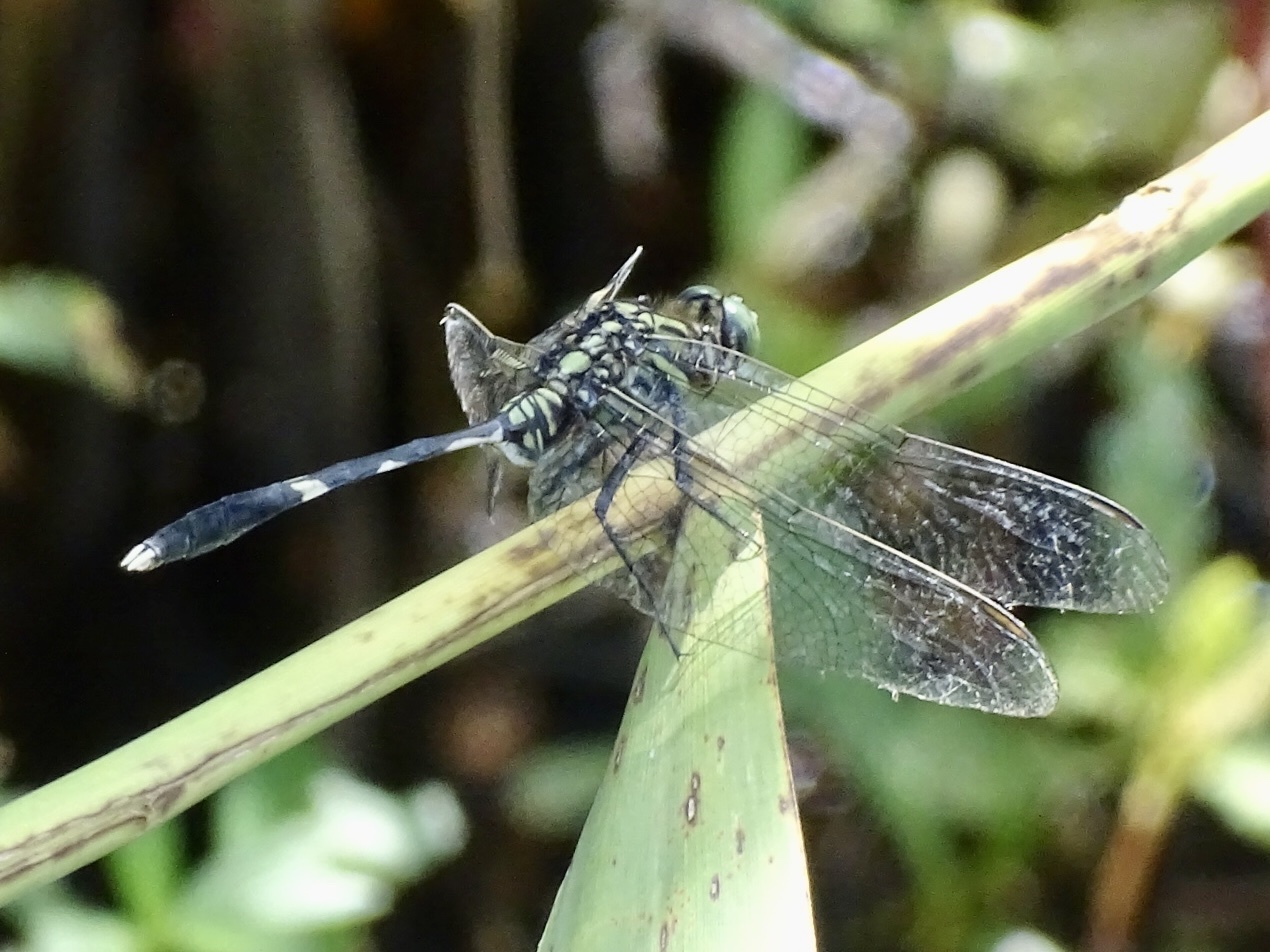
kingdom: Animalia
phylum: Arthropoda
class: Insecta
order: Odonata
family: Libellulidae
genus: Orthetrum
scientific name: Orthetrum sabina
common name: Slender skimmer
